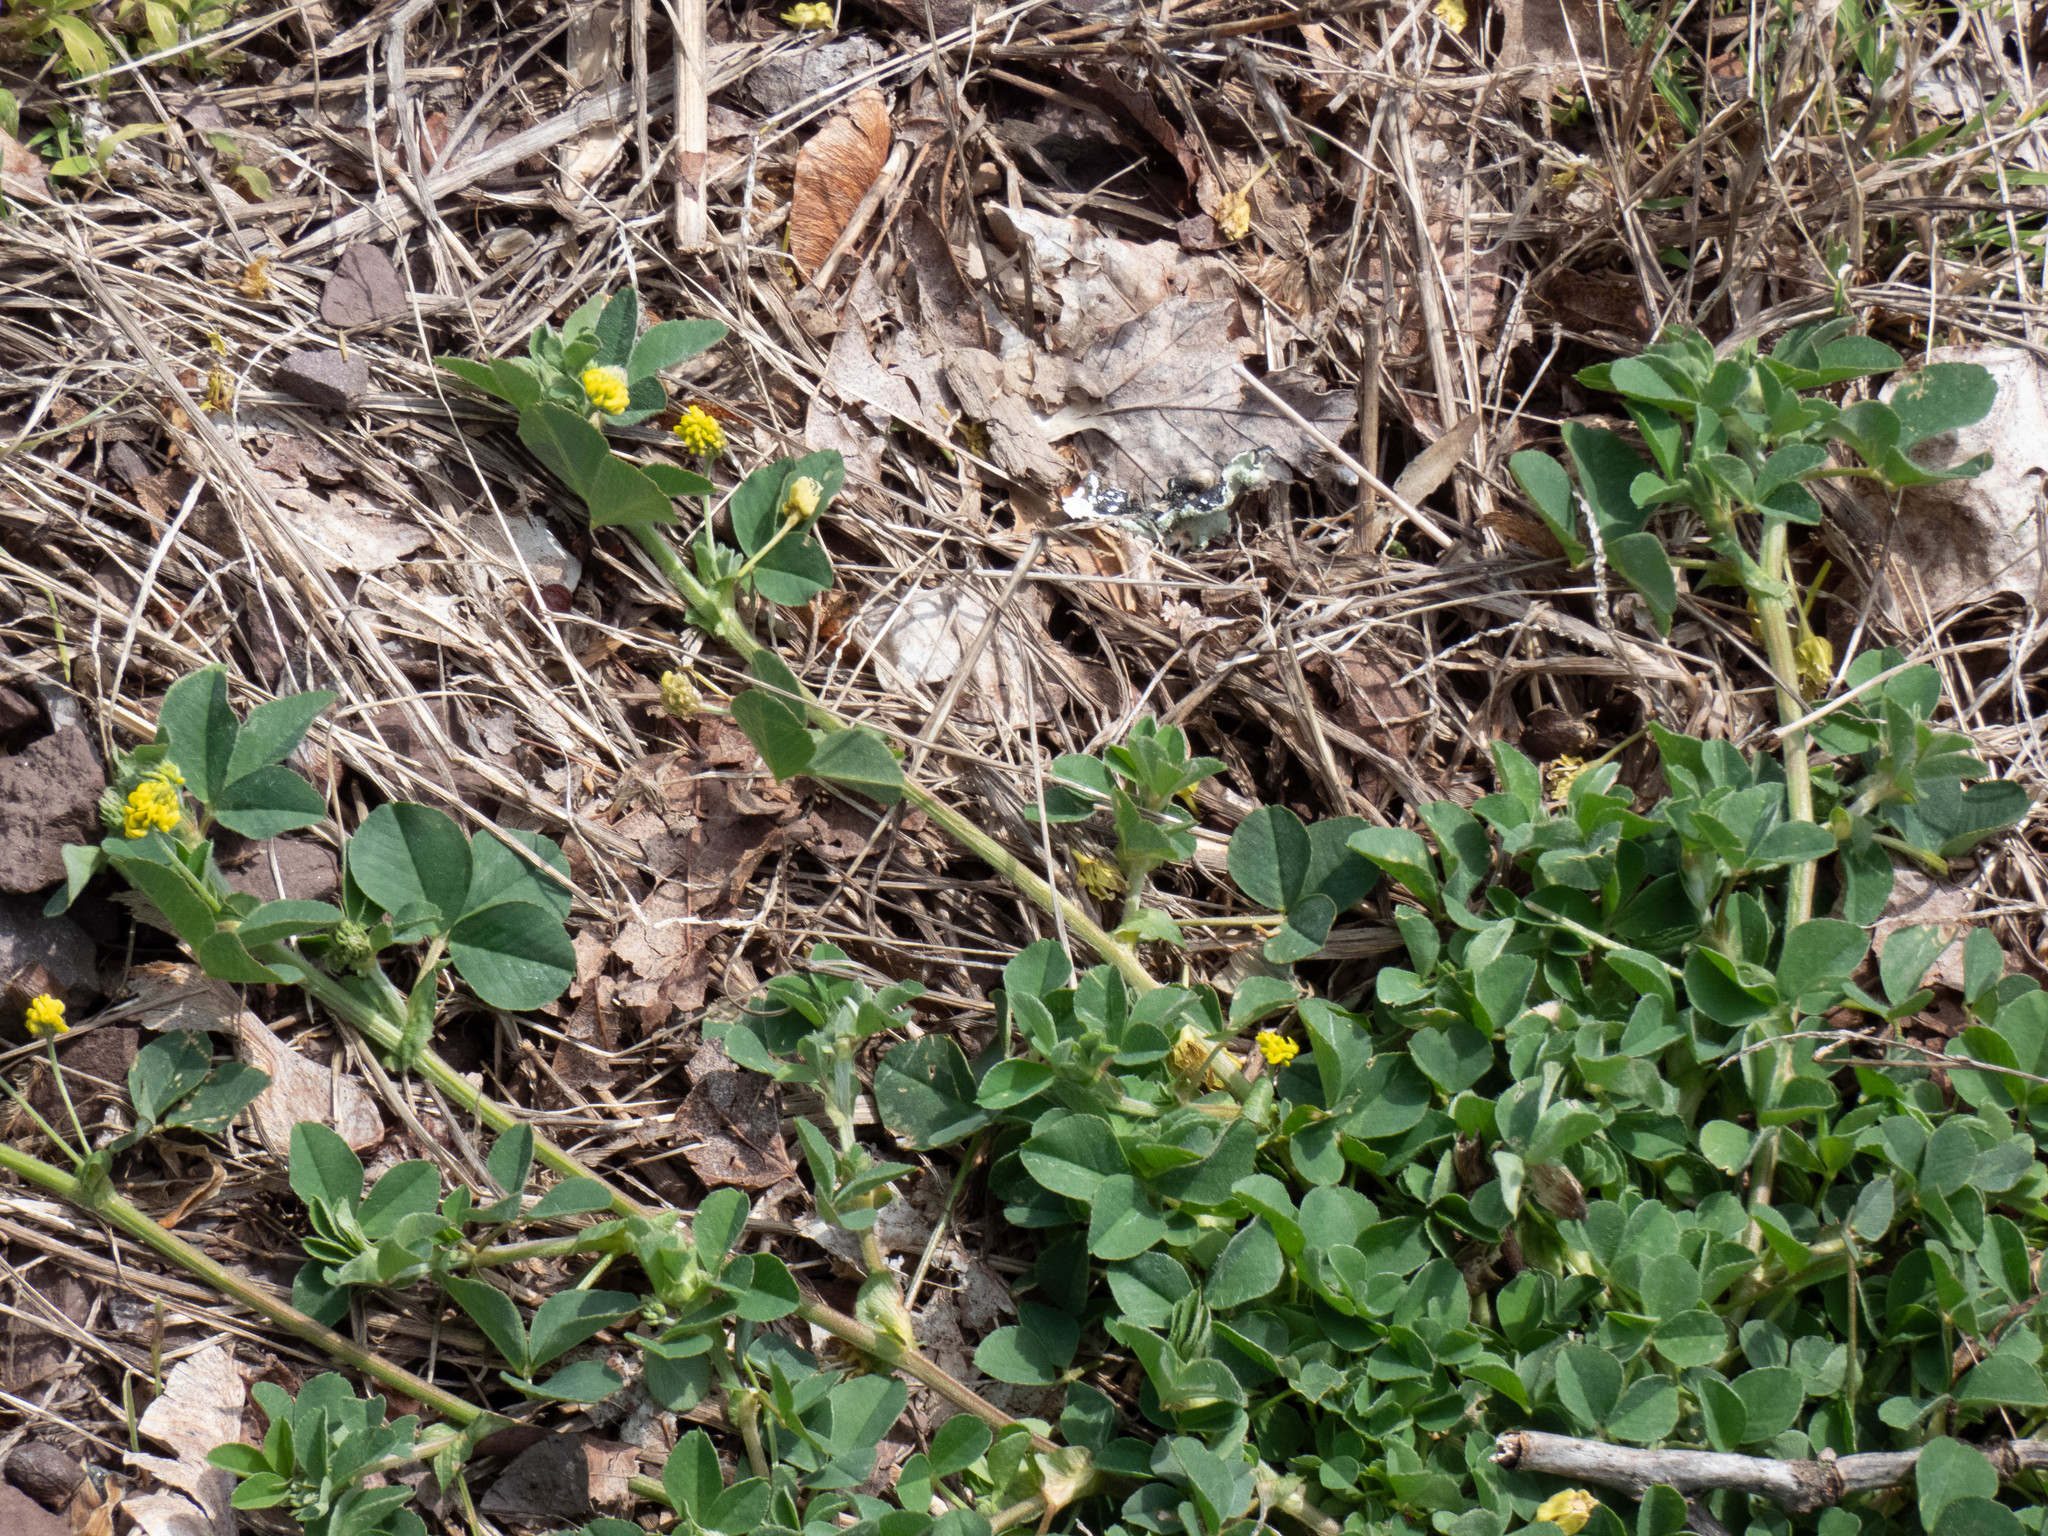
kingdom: Plantae
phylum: Tracheophyta
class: Magnoliopsida
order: Fabales
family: Fabaceae
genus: Medicago
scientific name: Medicago lupulina
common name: Black medick
